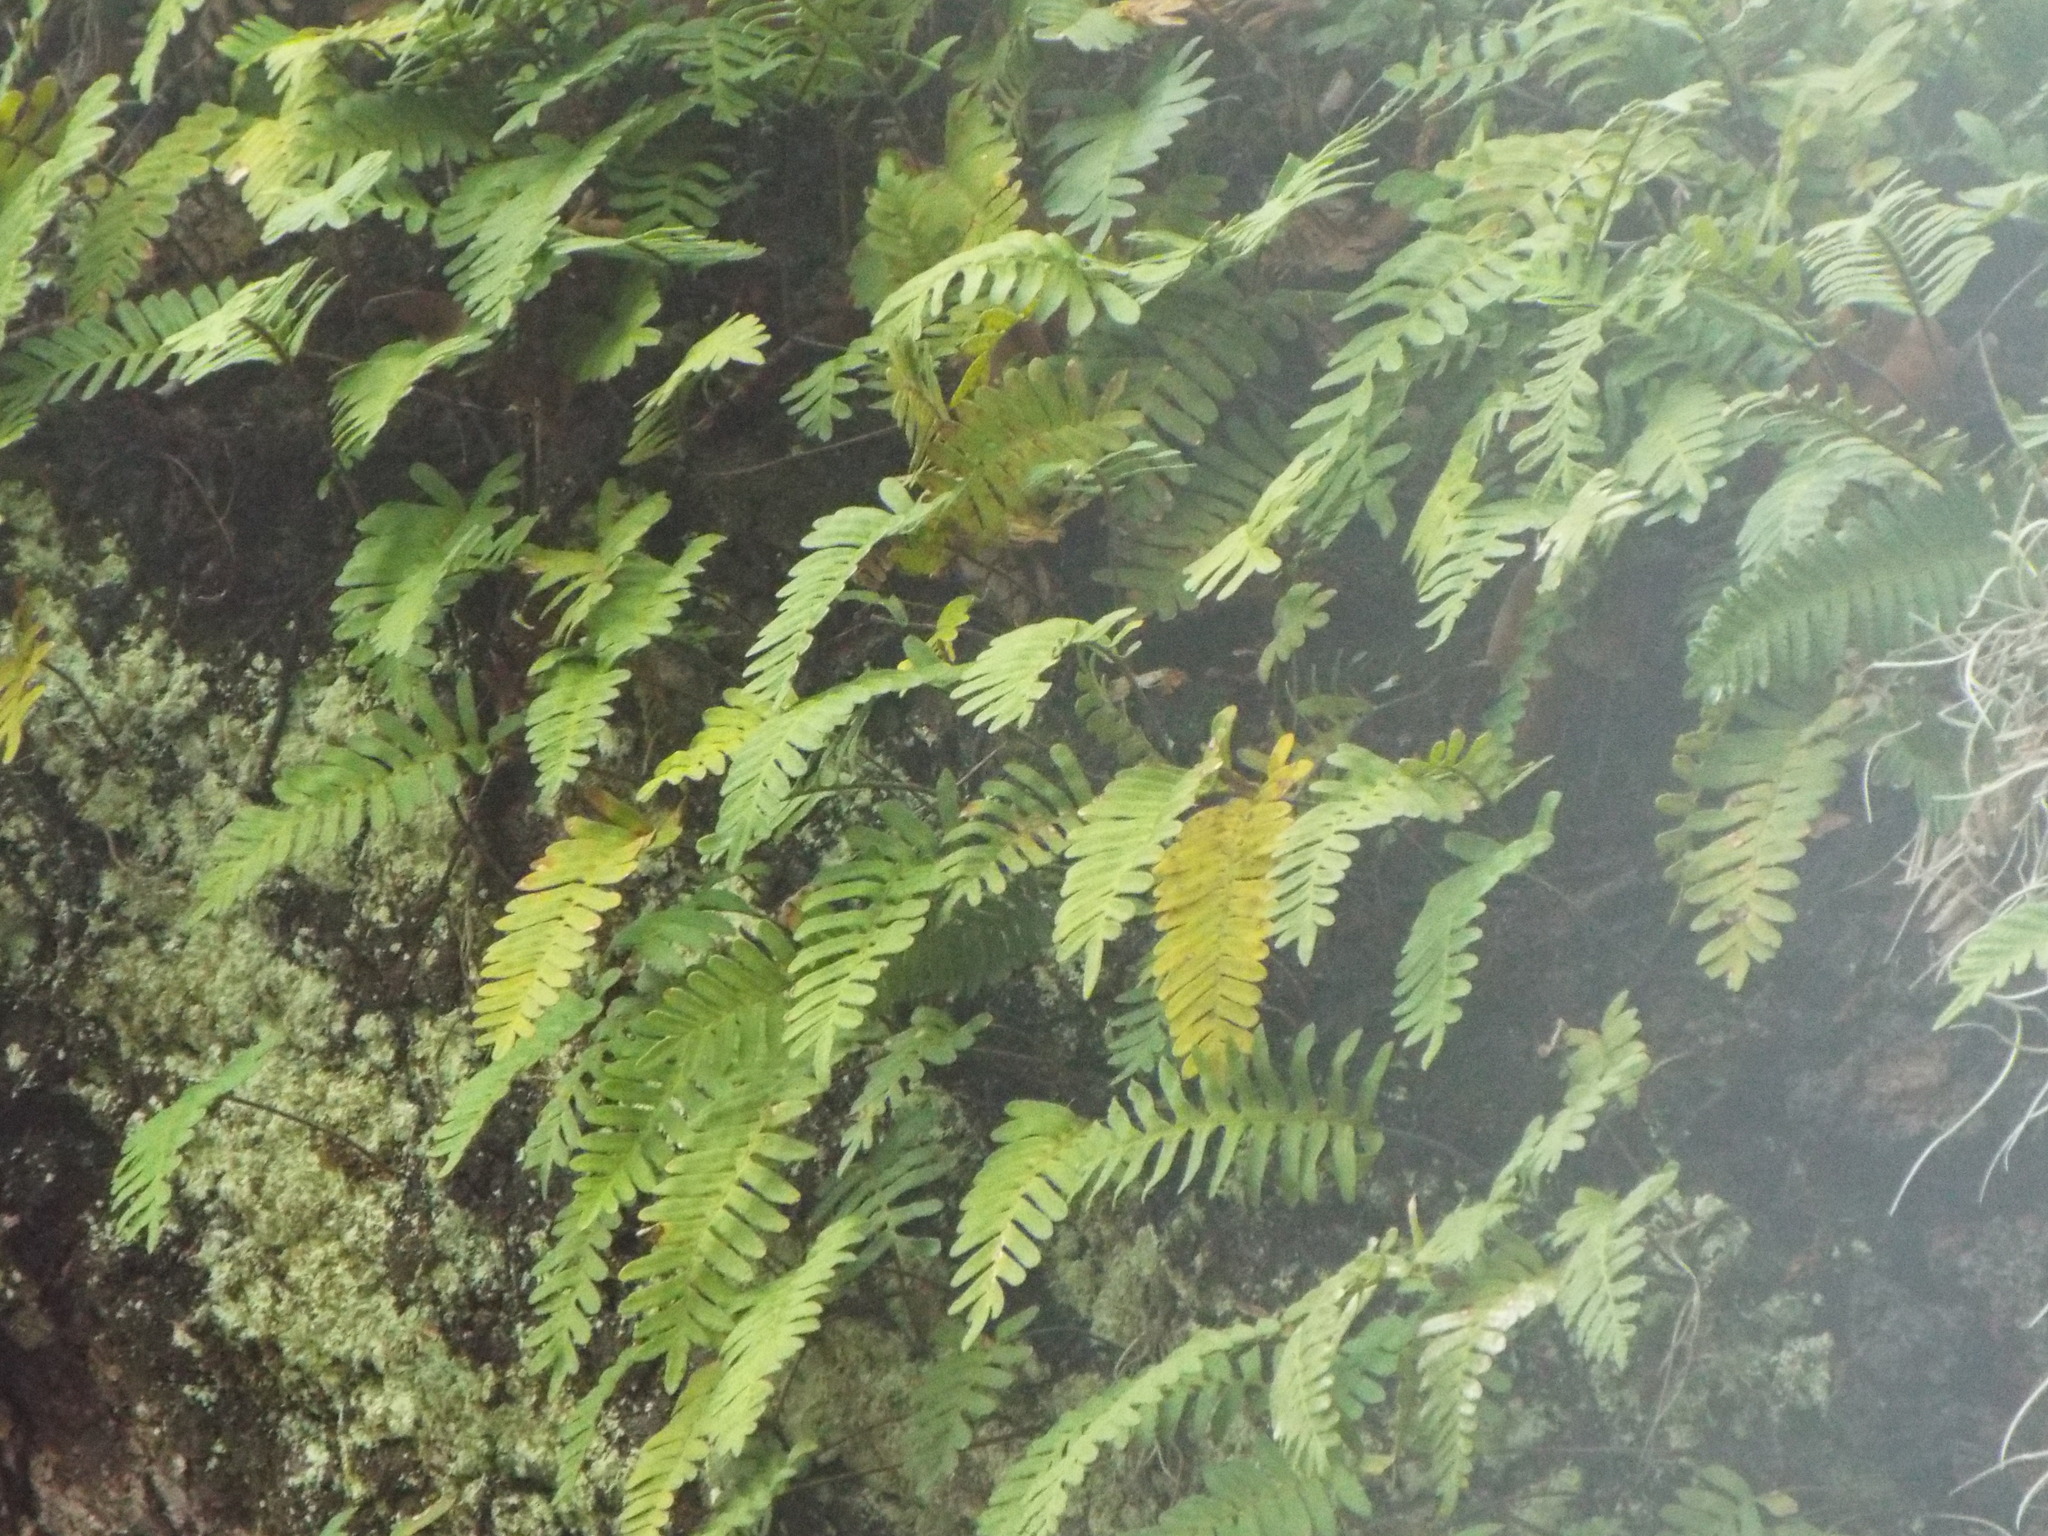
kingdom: Plantae
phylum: Tracheophyta
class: Polypodiopsida
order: Polypodiales
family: Polypodiaceae
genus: Pleopeltis
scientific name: Pleopeltis michauxiana
